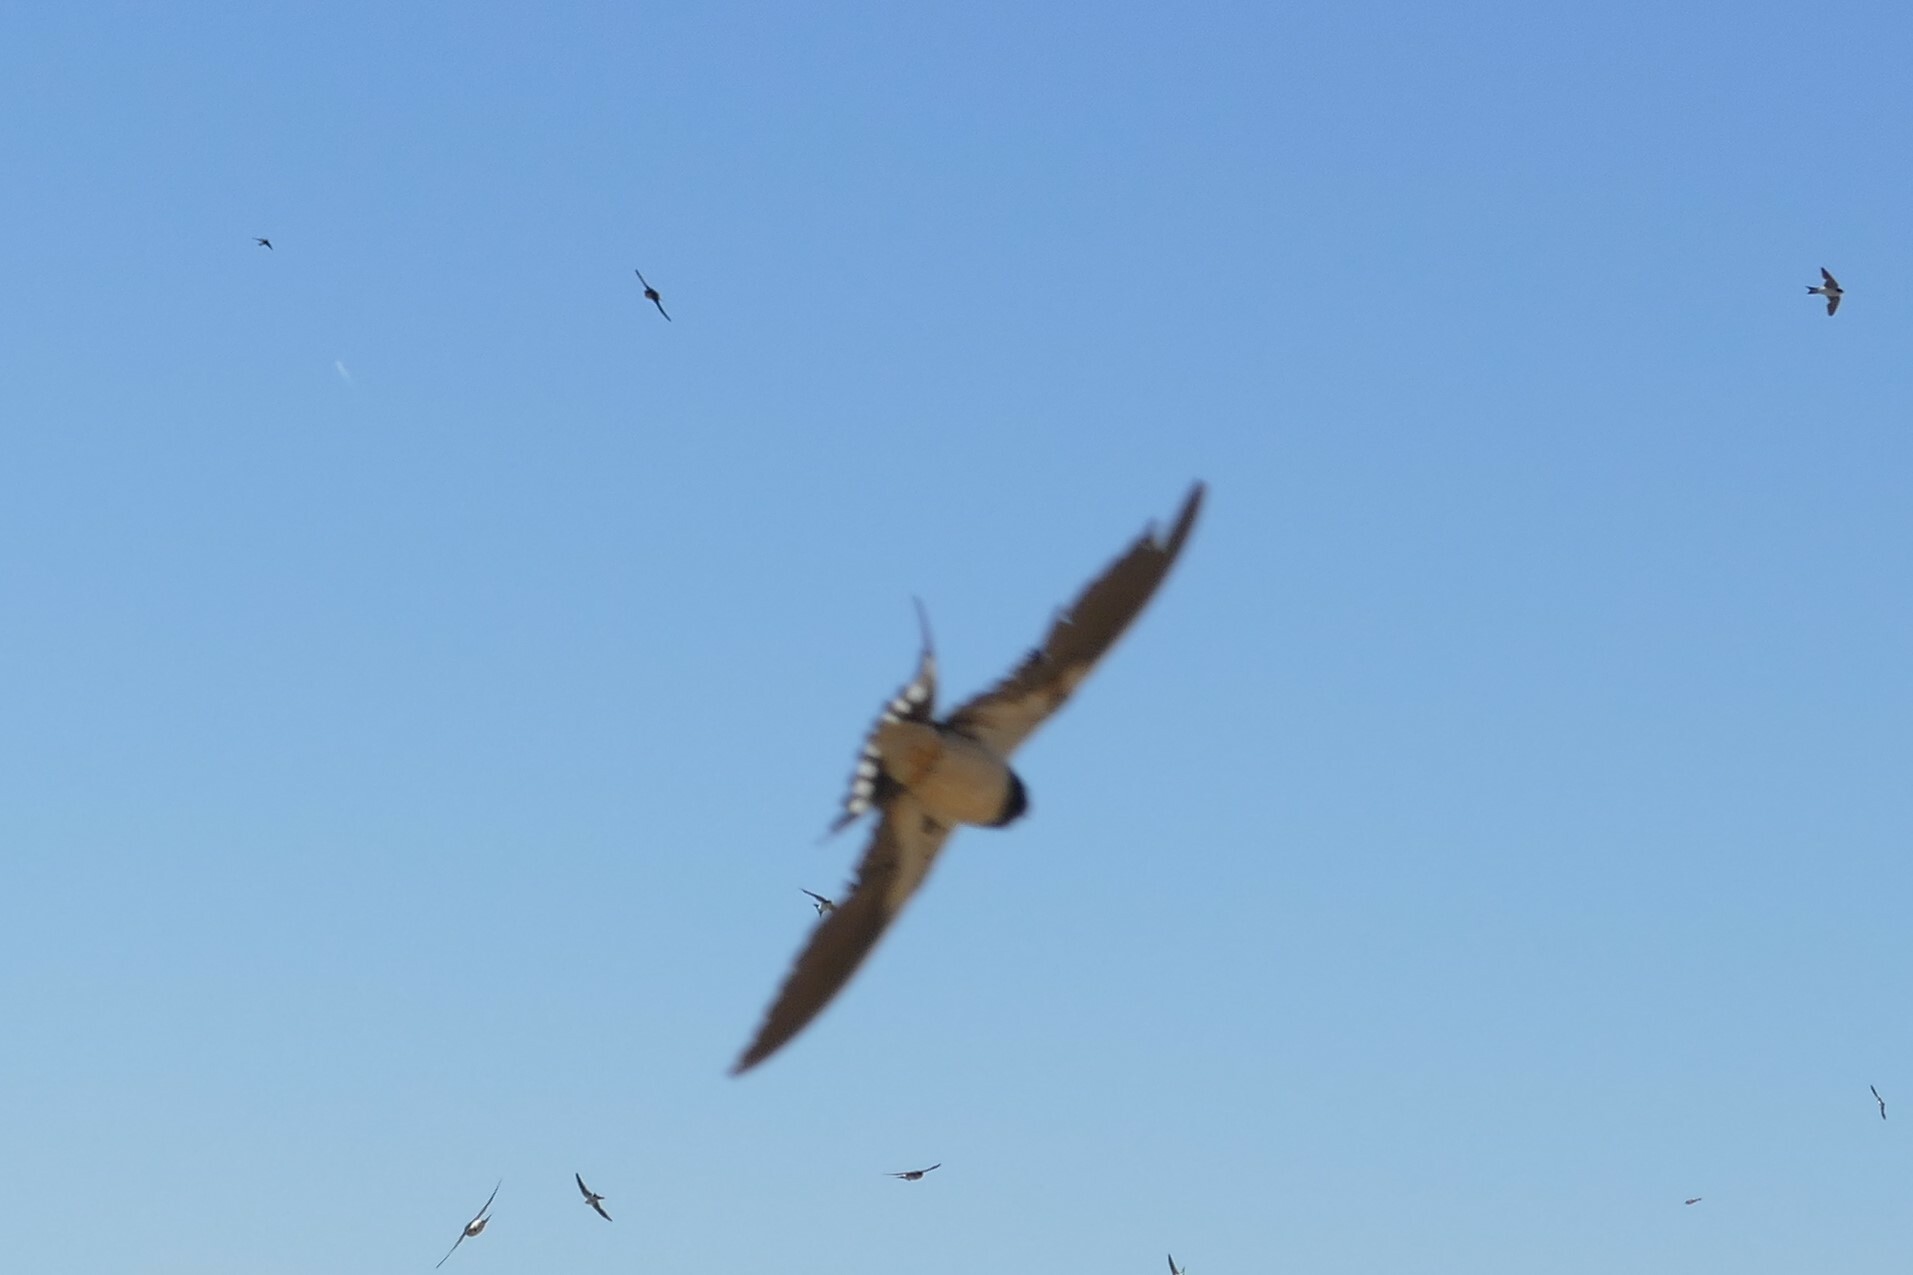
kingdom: Animalia
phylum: Chordata
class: Aves
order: Passeriformes
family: Hirundinidae
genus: Hirundo
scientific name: Hirundo rustica
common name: Barn swallow
